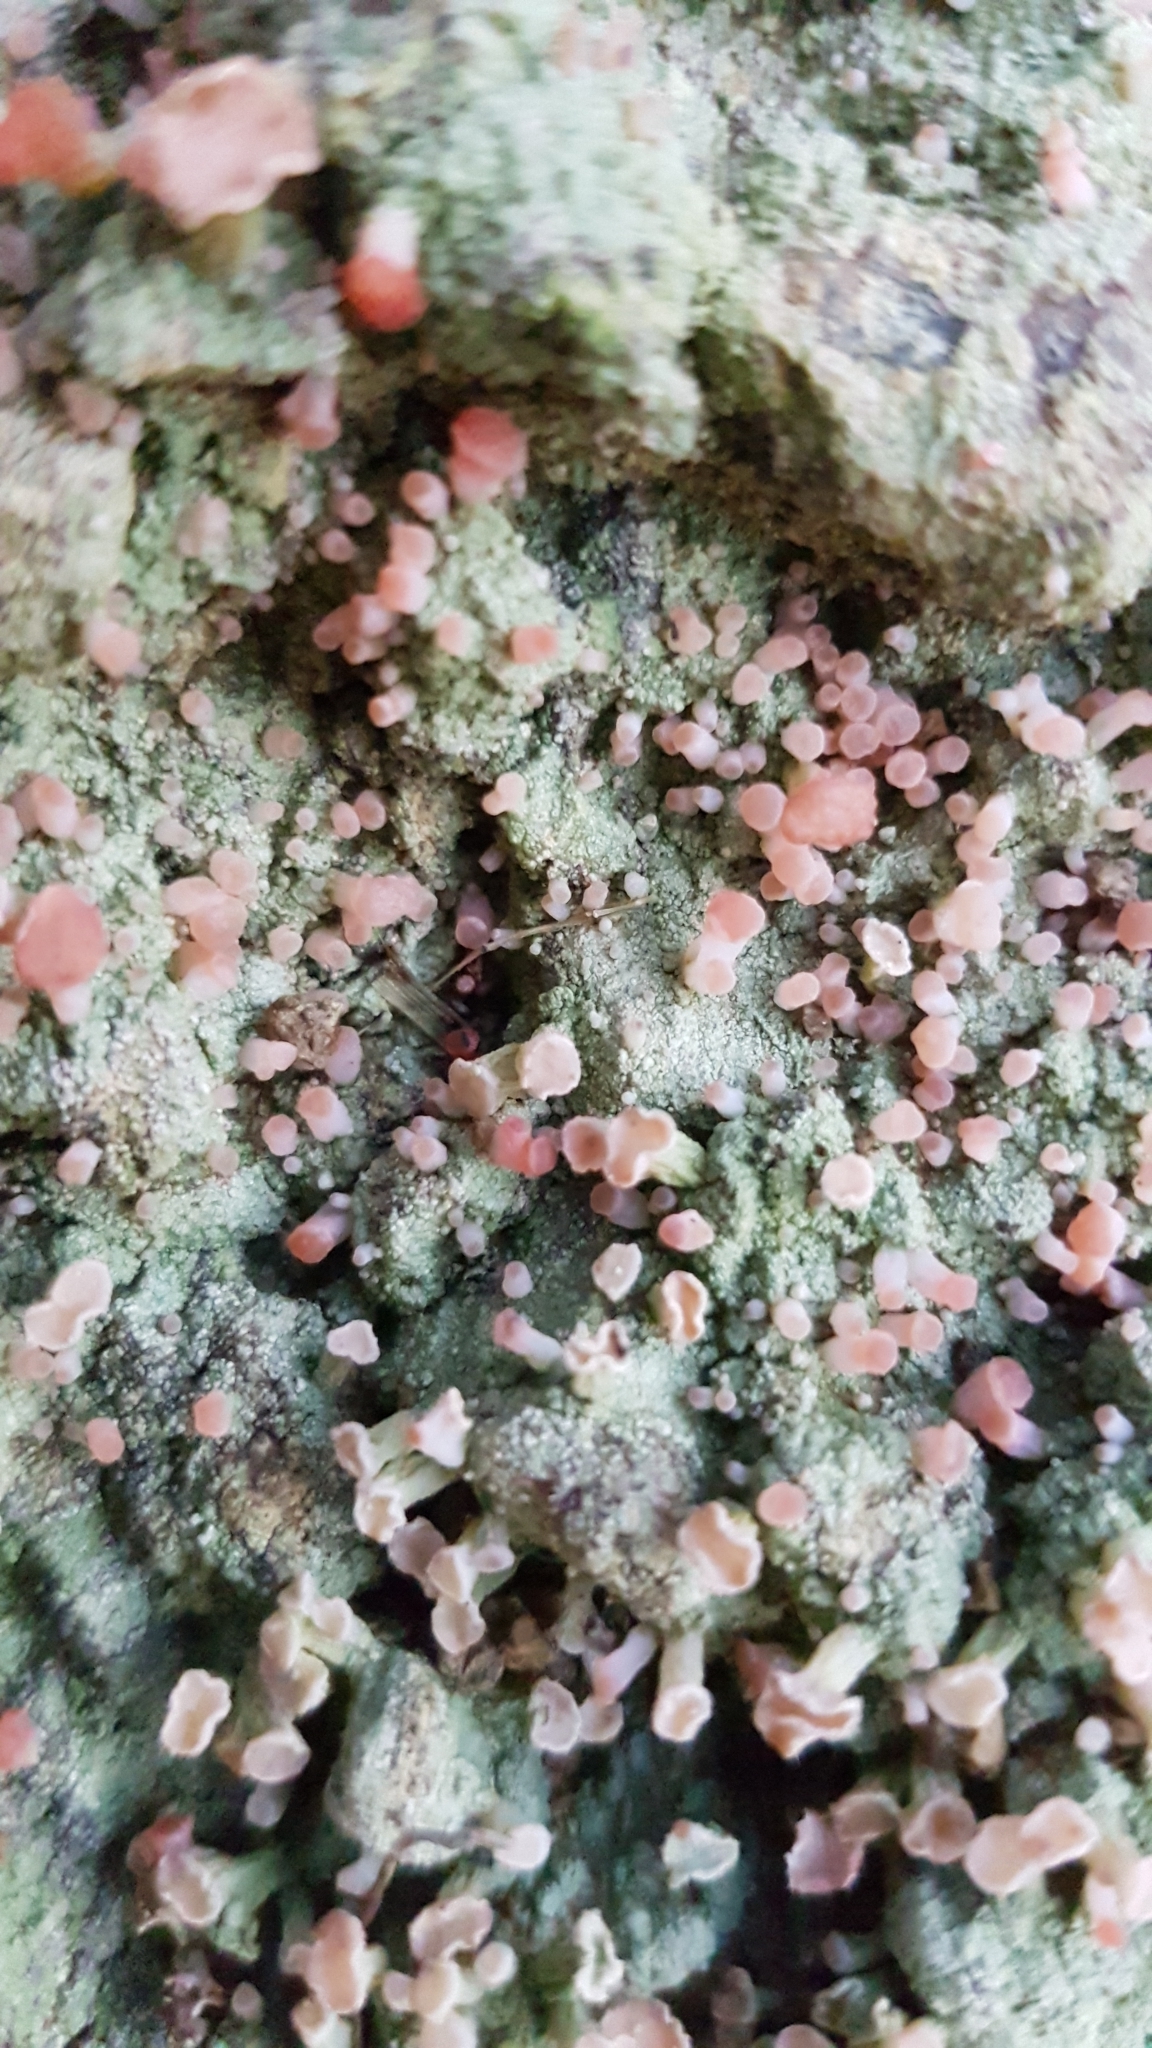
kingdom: Fungi
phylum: Ascomycota
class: Lecanoromycetes
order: Baeomycetales
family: Baeomycetaceae
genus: Baeomyces
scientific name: Baeomyces heteromorphus
